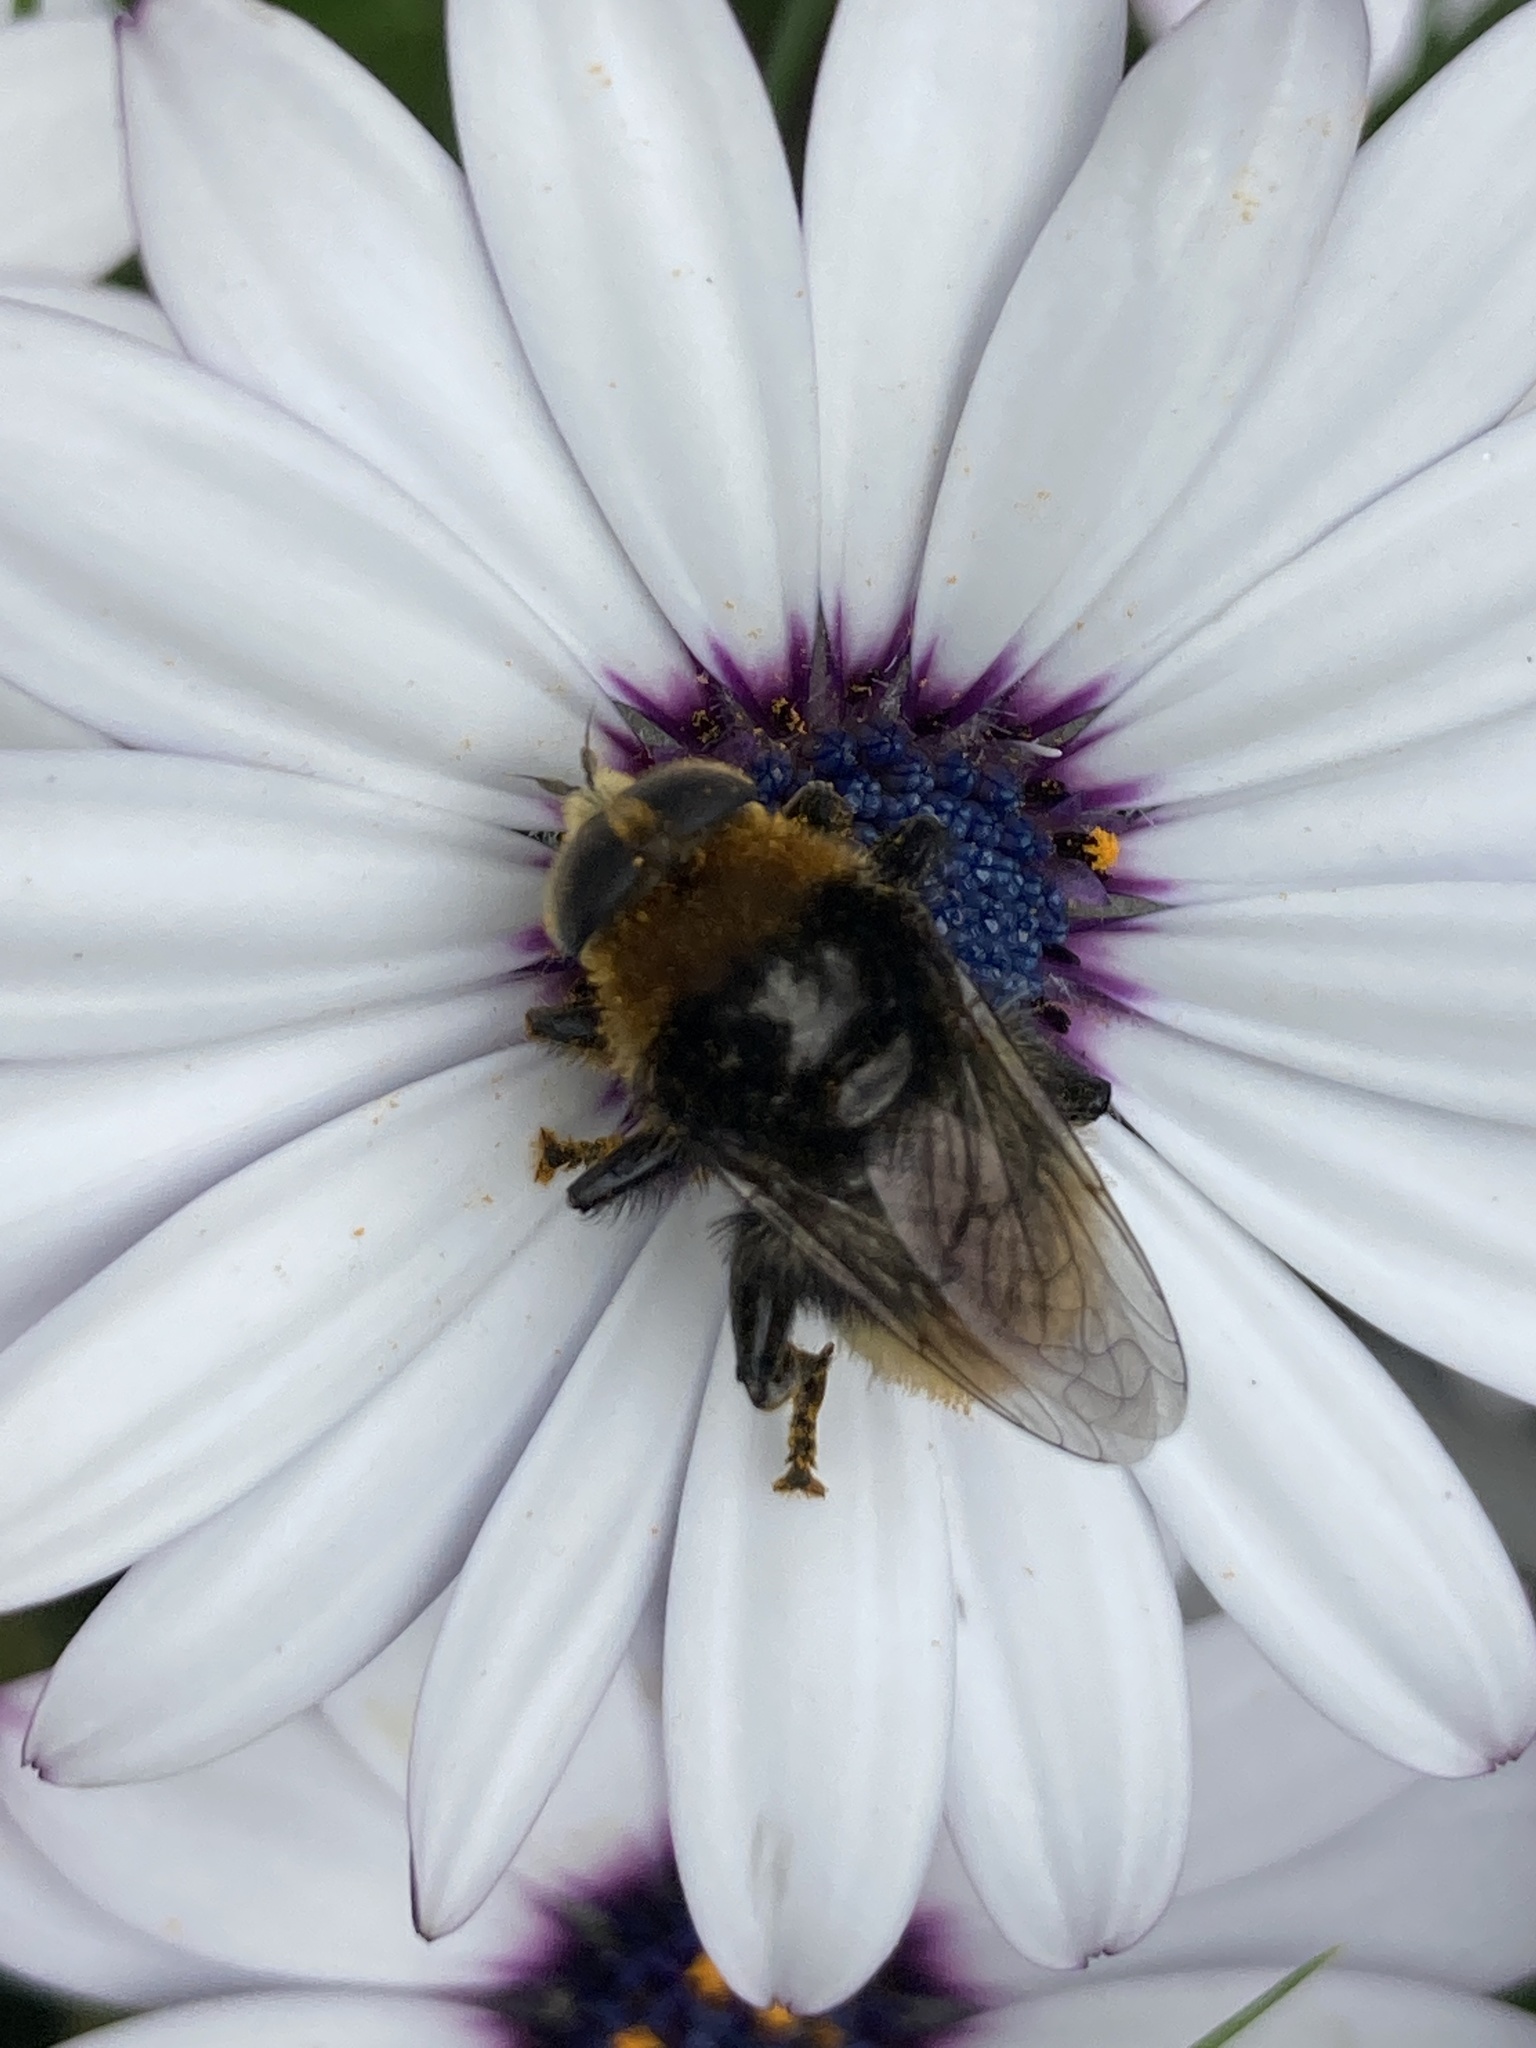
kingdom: Animalia
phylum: Arthropoda
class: Insecta
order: Diptera
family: Syrphidae
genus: Merodon
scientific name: Merodon equestris
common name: Greater bulb-fly
